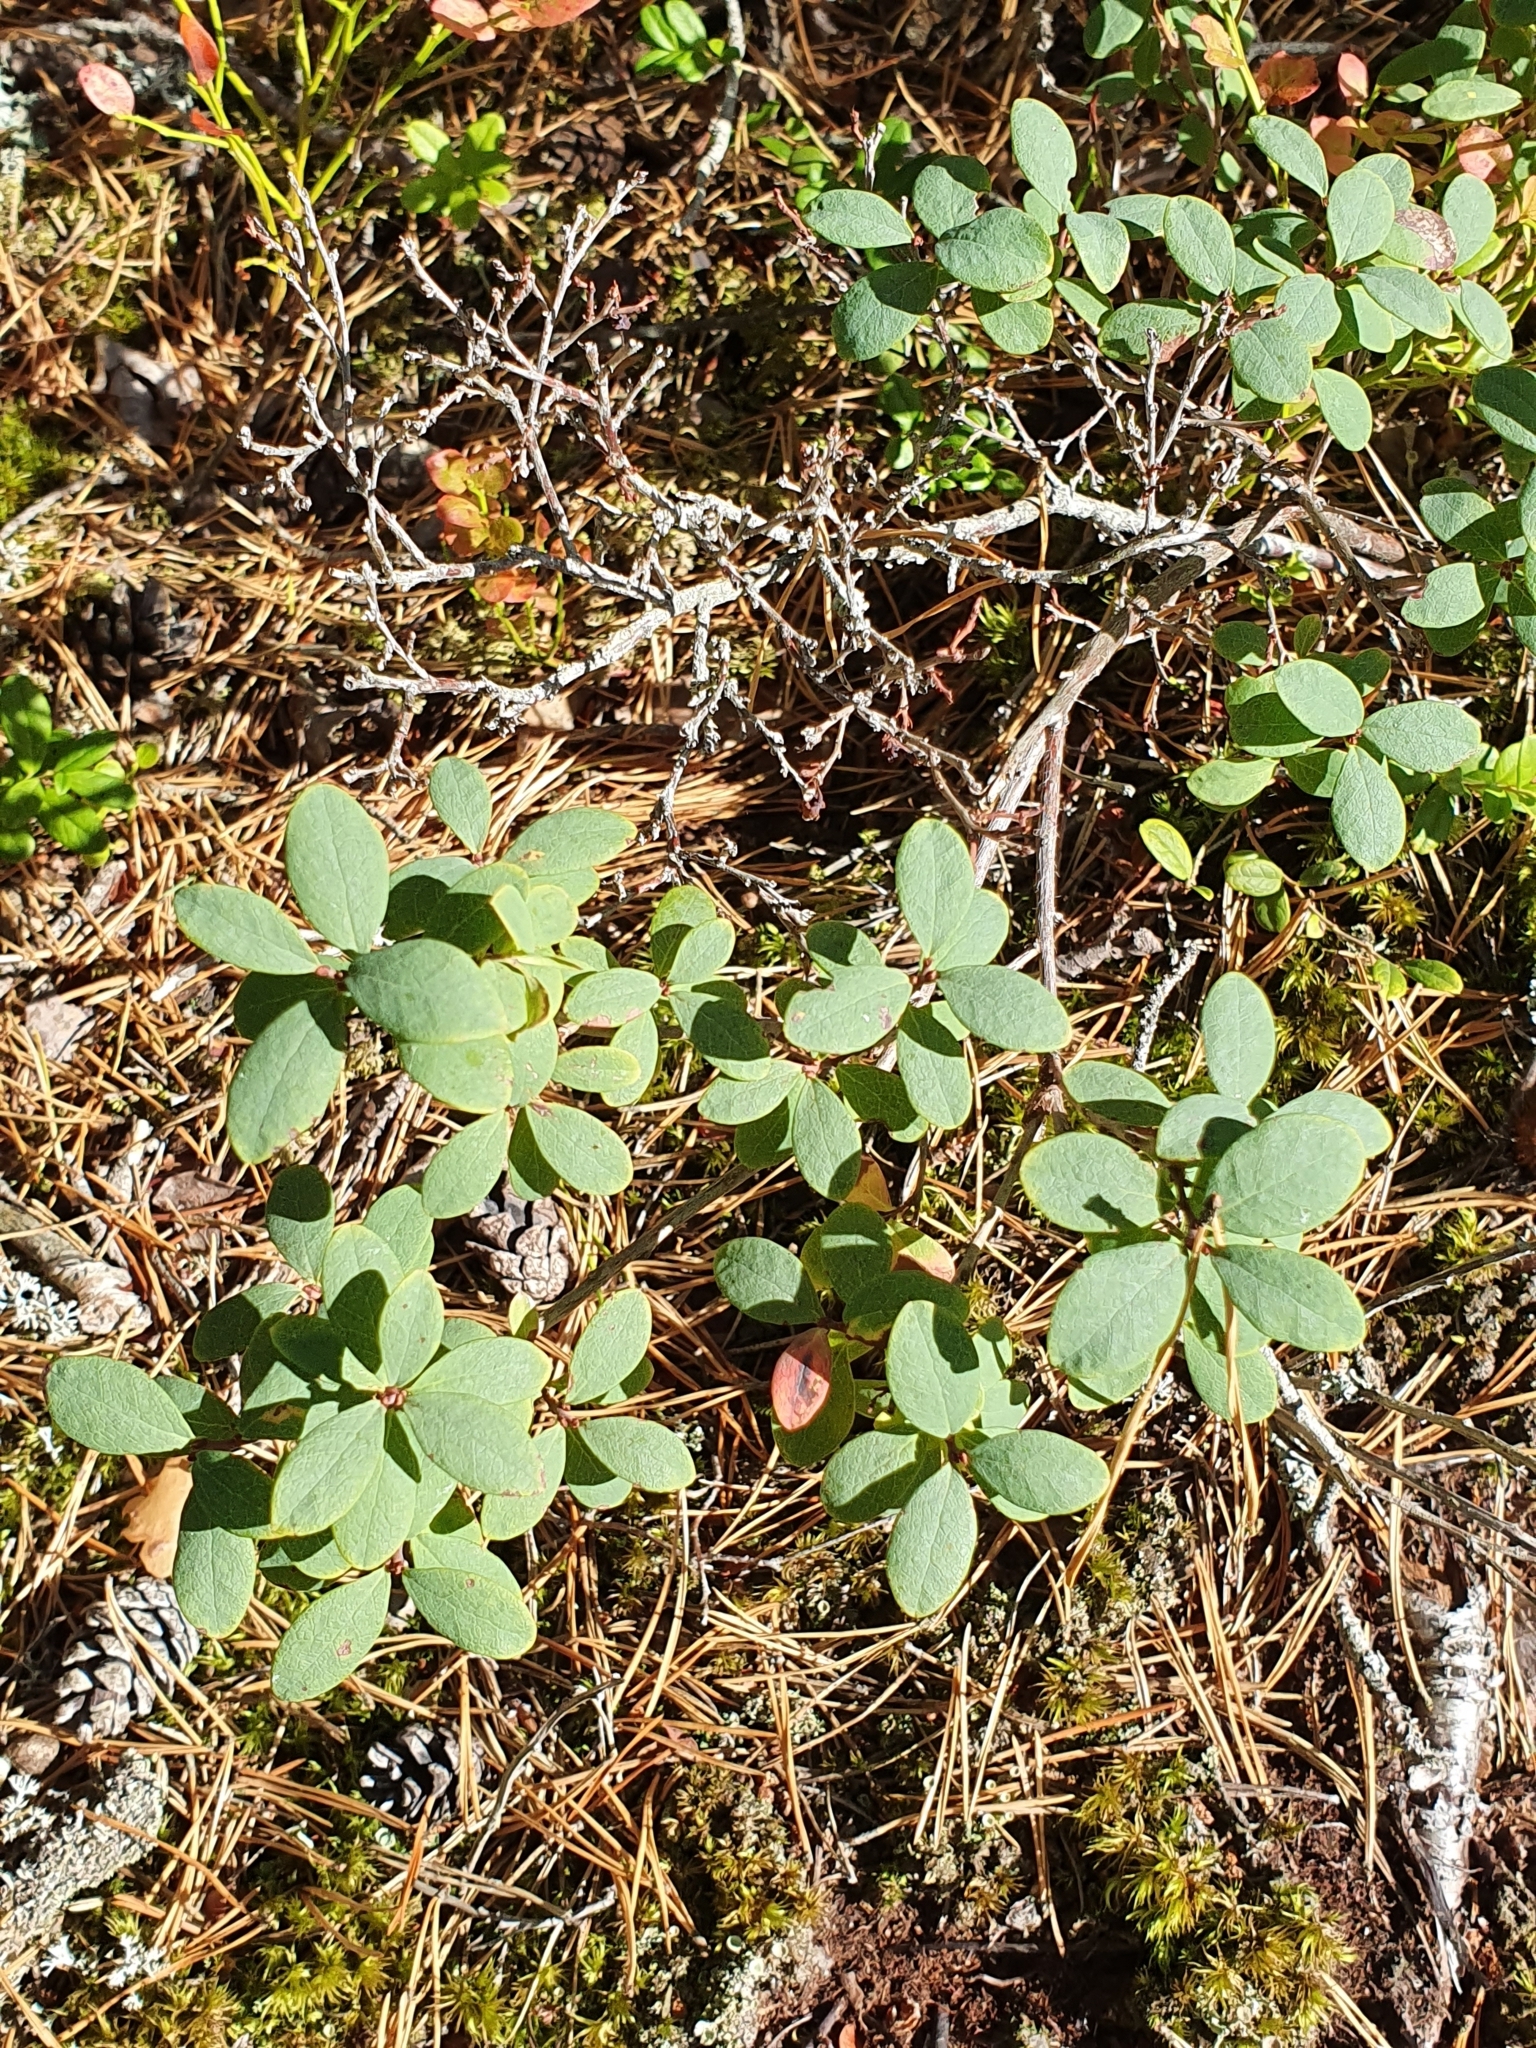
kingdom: Plantae
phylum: Tracheophyta
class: Magnoliopsida
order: Ericales
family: Ericaceae
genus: Vaccinium
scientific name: Vaccinium uliginosum
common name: Bog bilberry
